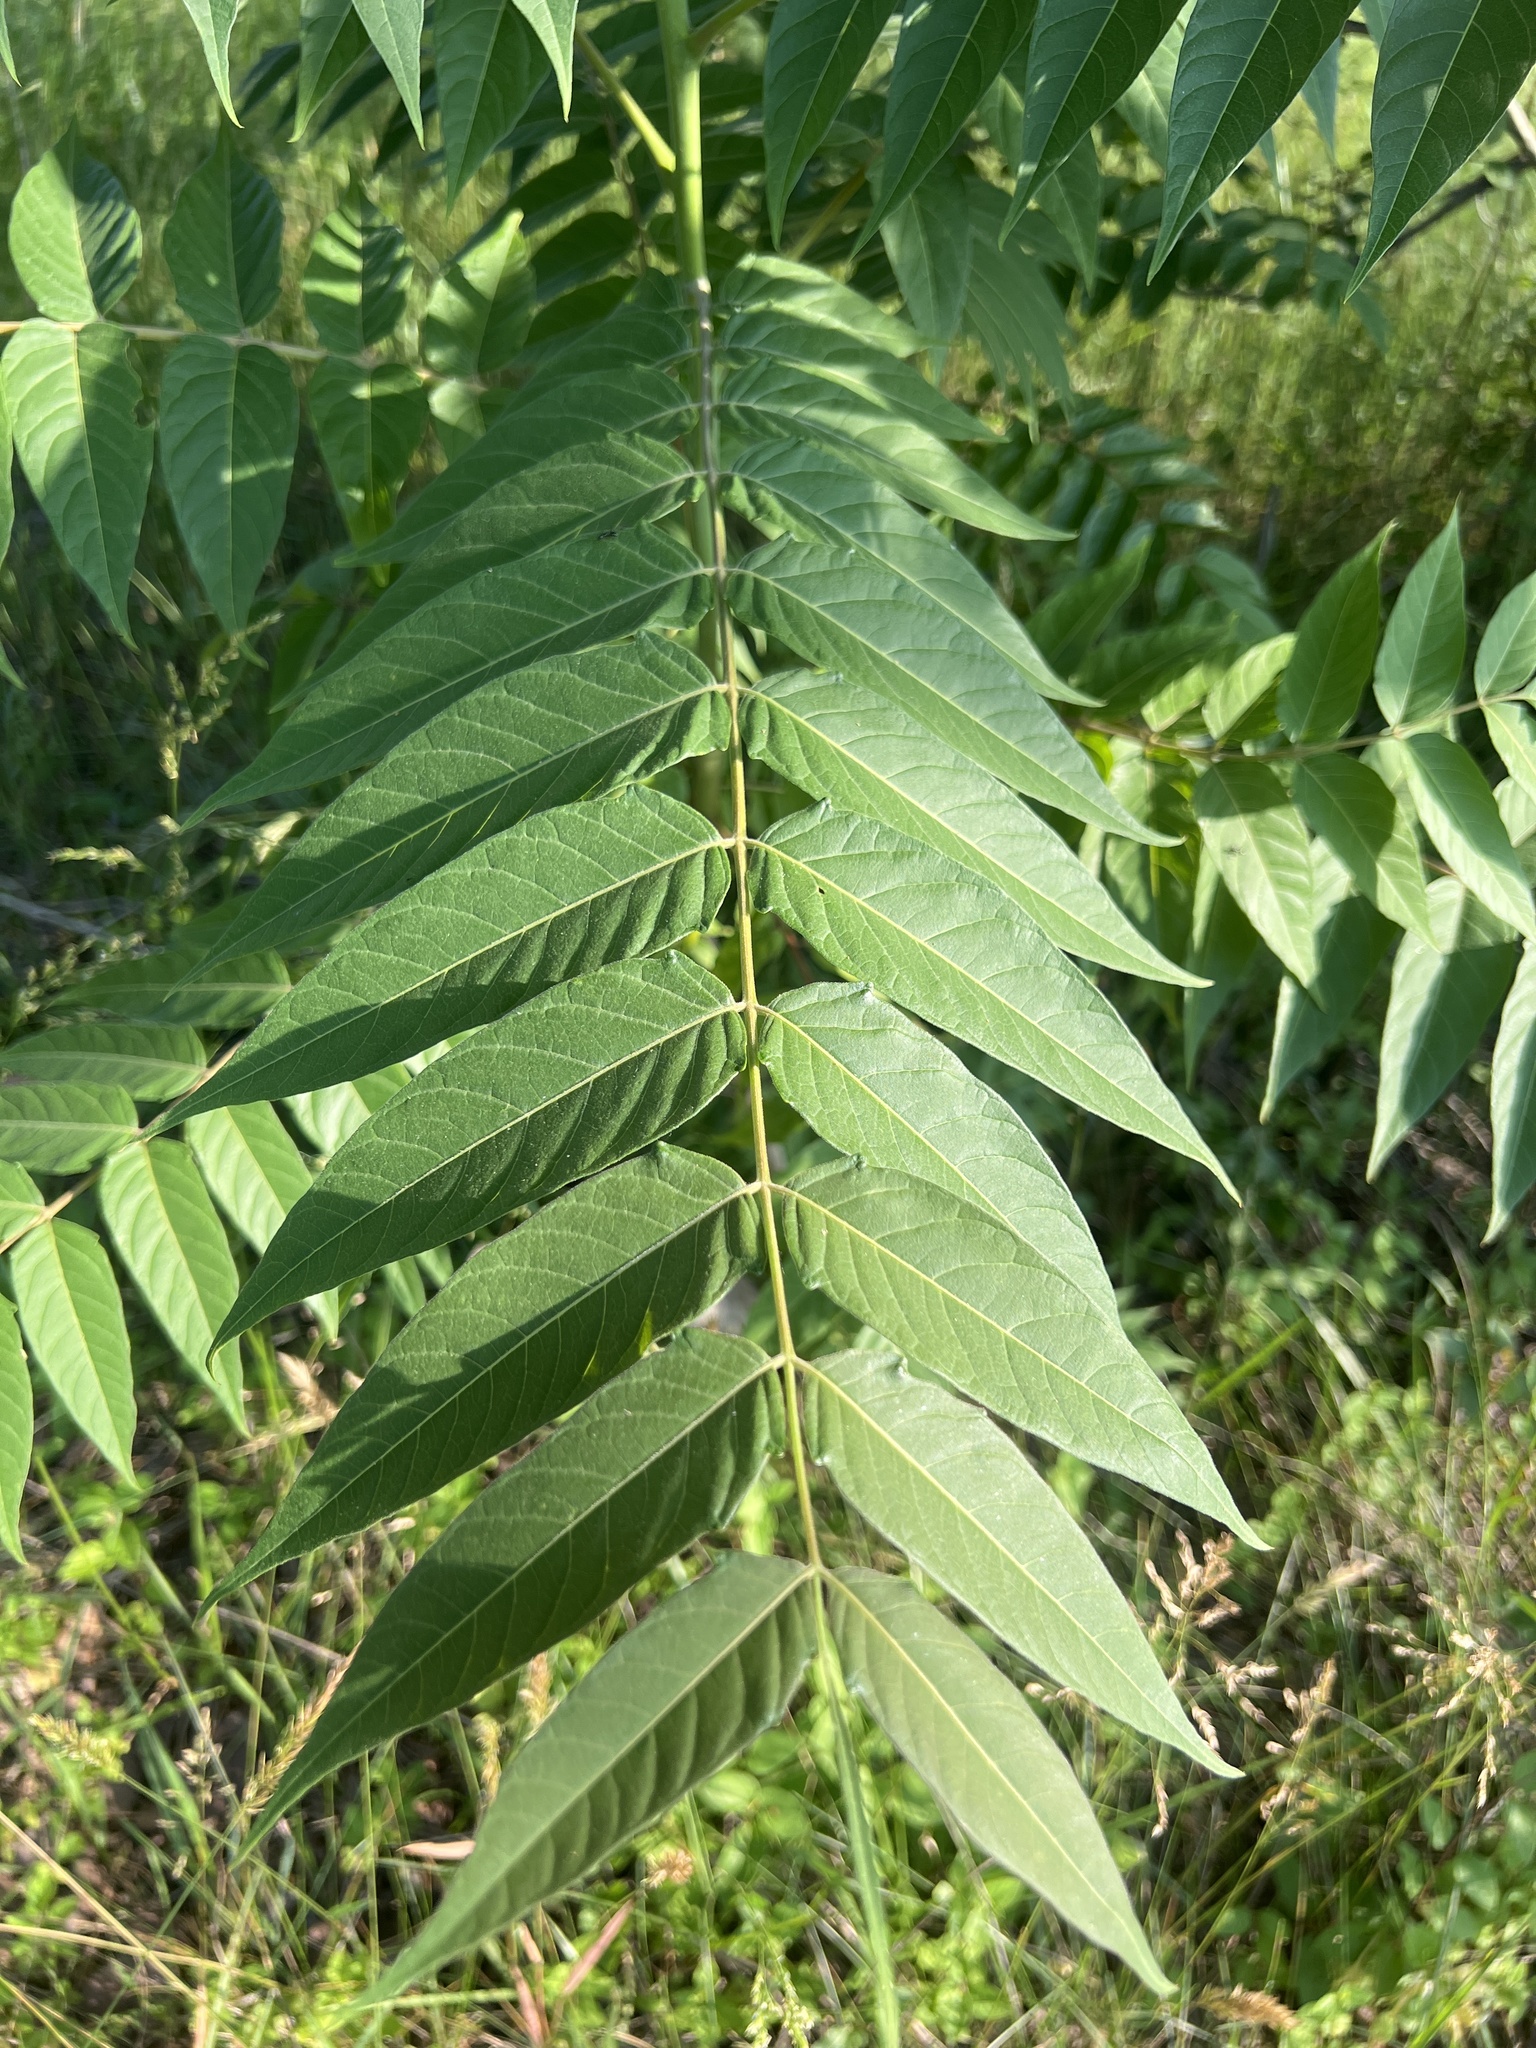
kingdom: Plantae
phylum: Tracheophyta
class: Magnoliopsida
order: Sapindales
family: Simaroubaceae
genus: Ailanthus
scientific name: Ailanthus altissima
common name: Tree-of-heaven
